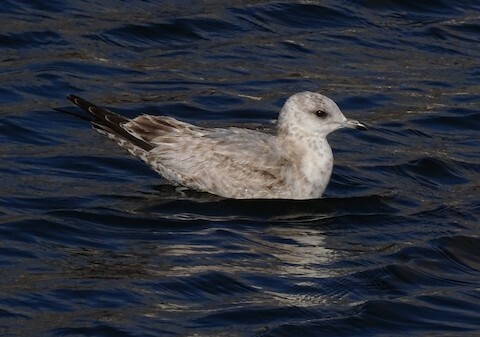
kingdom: Animalia
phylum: Chordata
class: Aves
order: Charadriiformes
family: Laridae
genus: Larus
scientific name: Larus brachyrhynchus
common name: Short-billed gull
